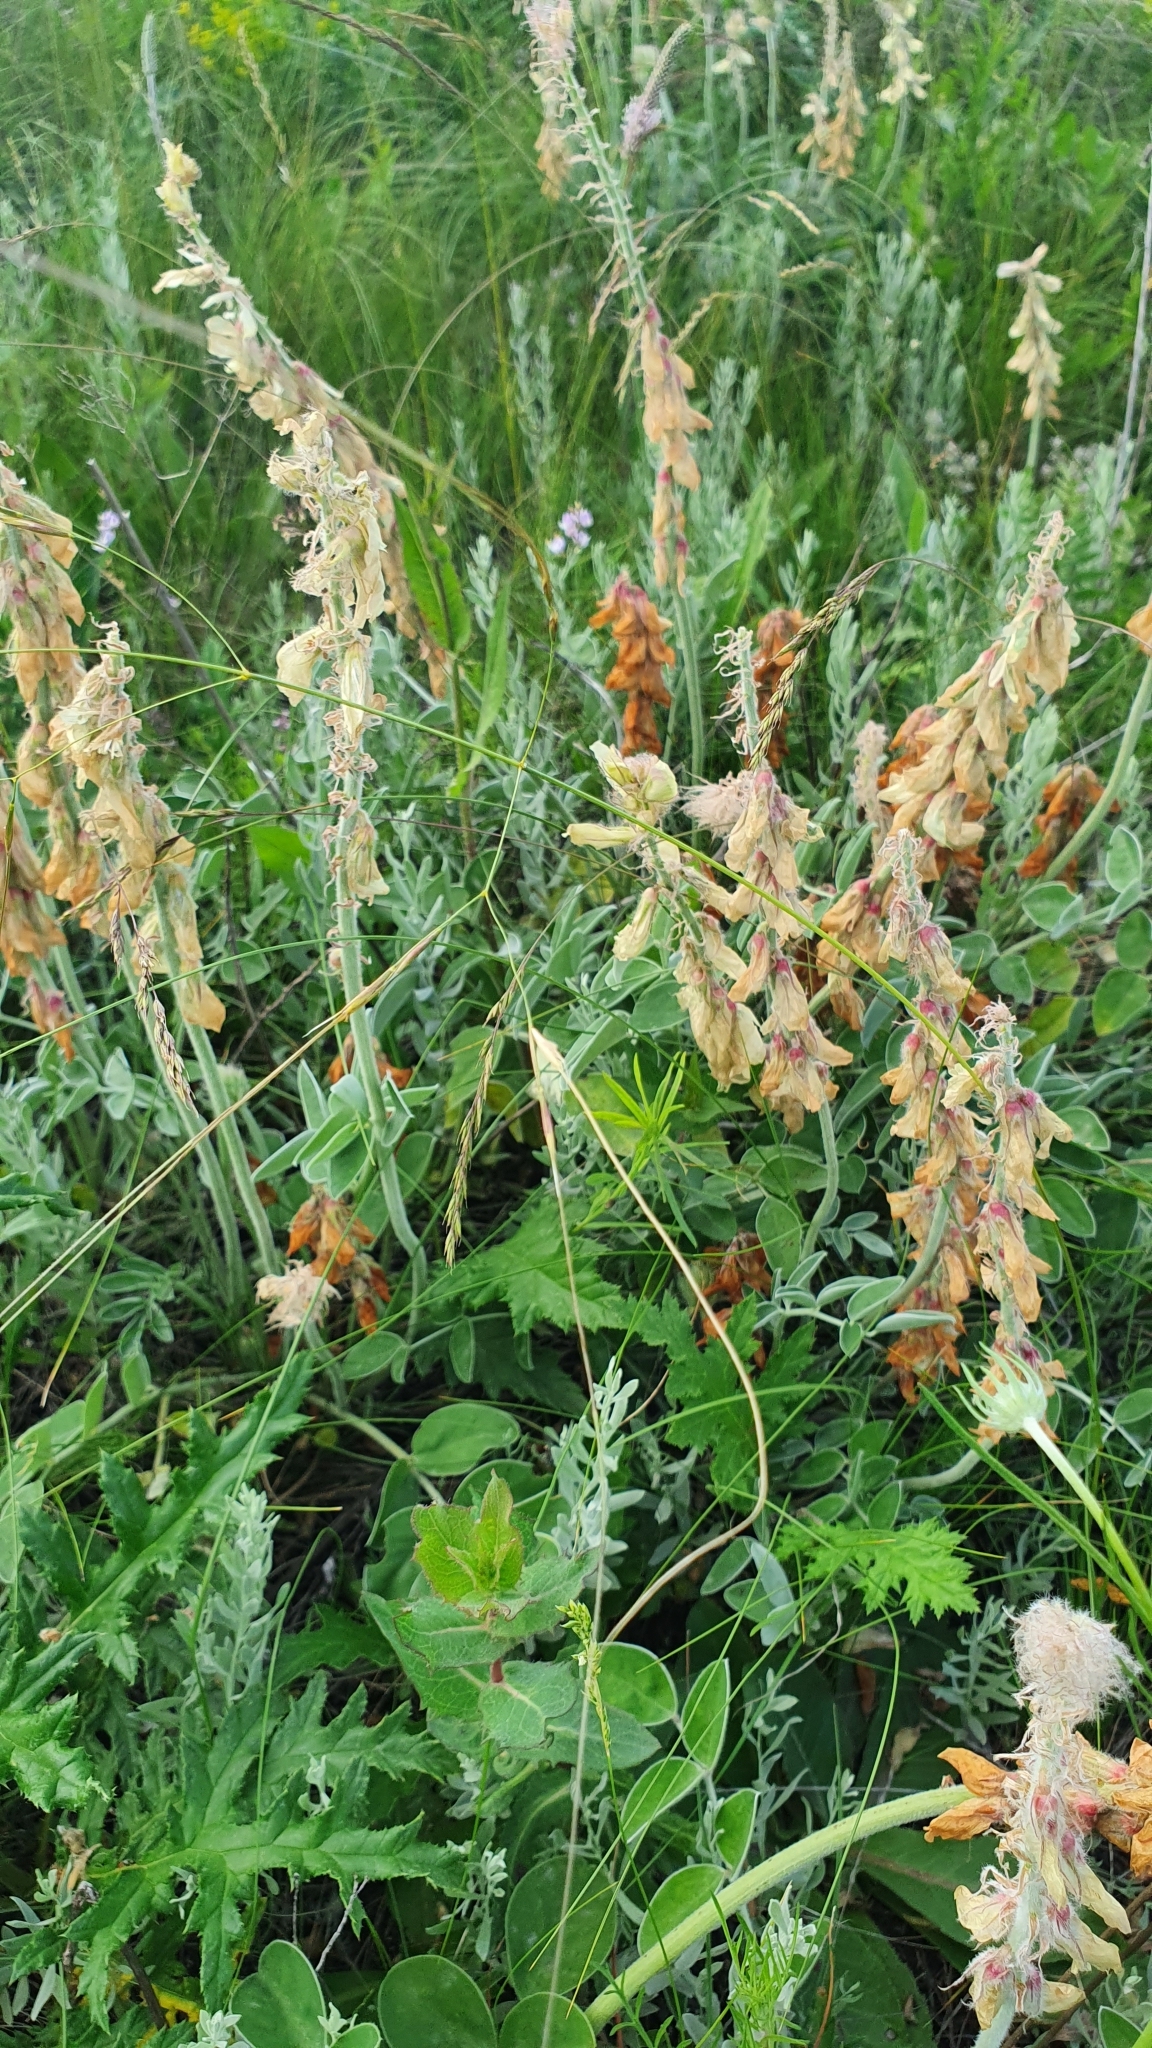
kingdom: Plantae
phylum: Tracheophyta
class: Magnoliopsida
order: Fabales
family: Fabaceae
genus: Hedysarum
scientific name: Hedysarum grandiflorum
